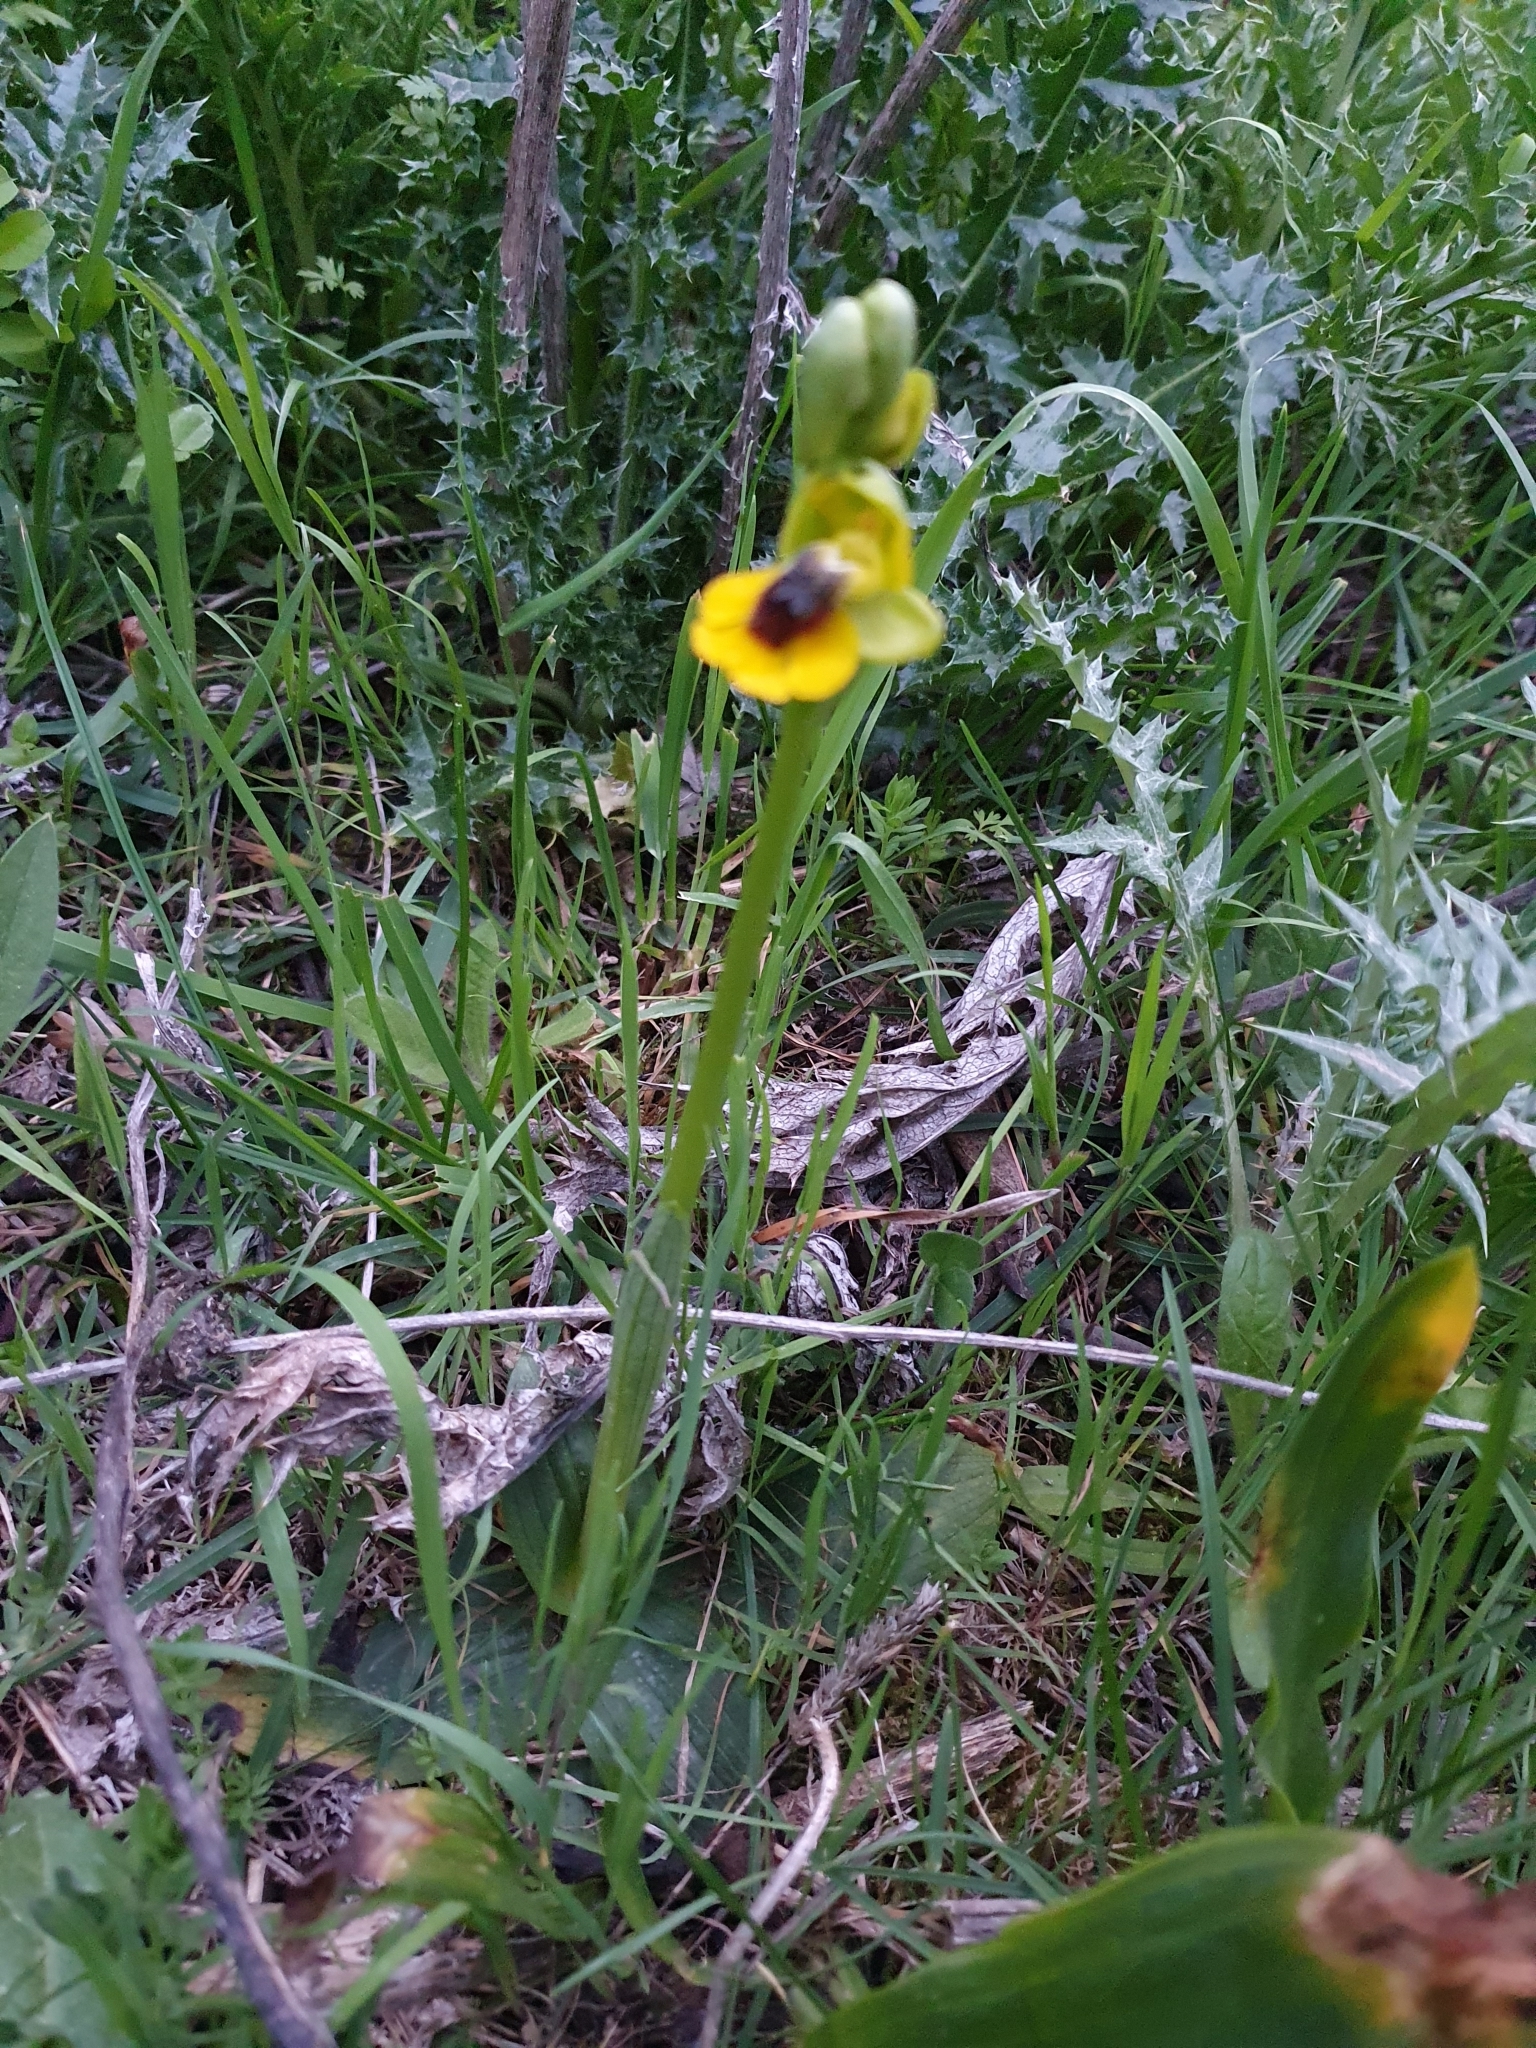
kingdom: Plantae
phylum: Tracheophyta
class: Liliopsida
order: Asparagales
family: Orchidaceae
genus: Ophrys
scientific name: Ophrys lutea
